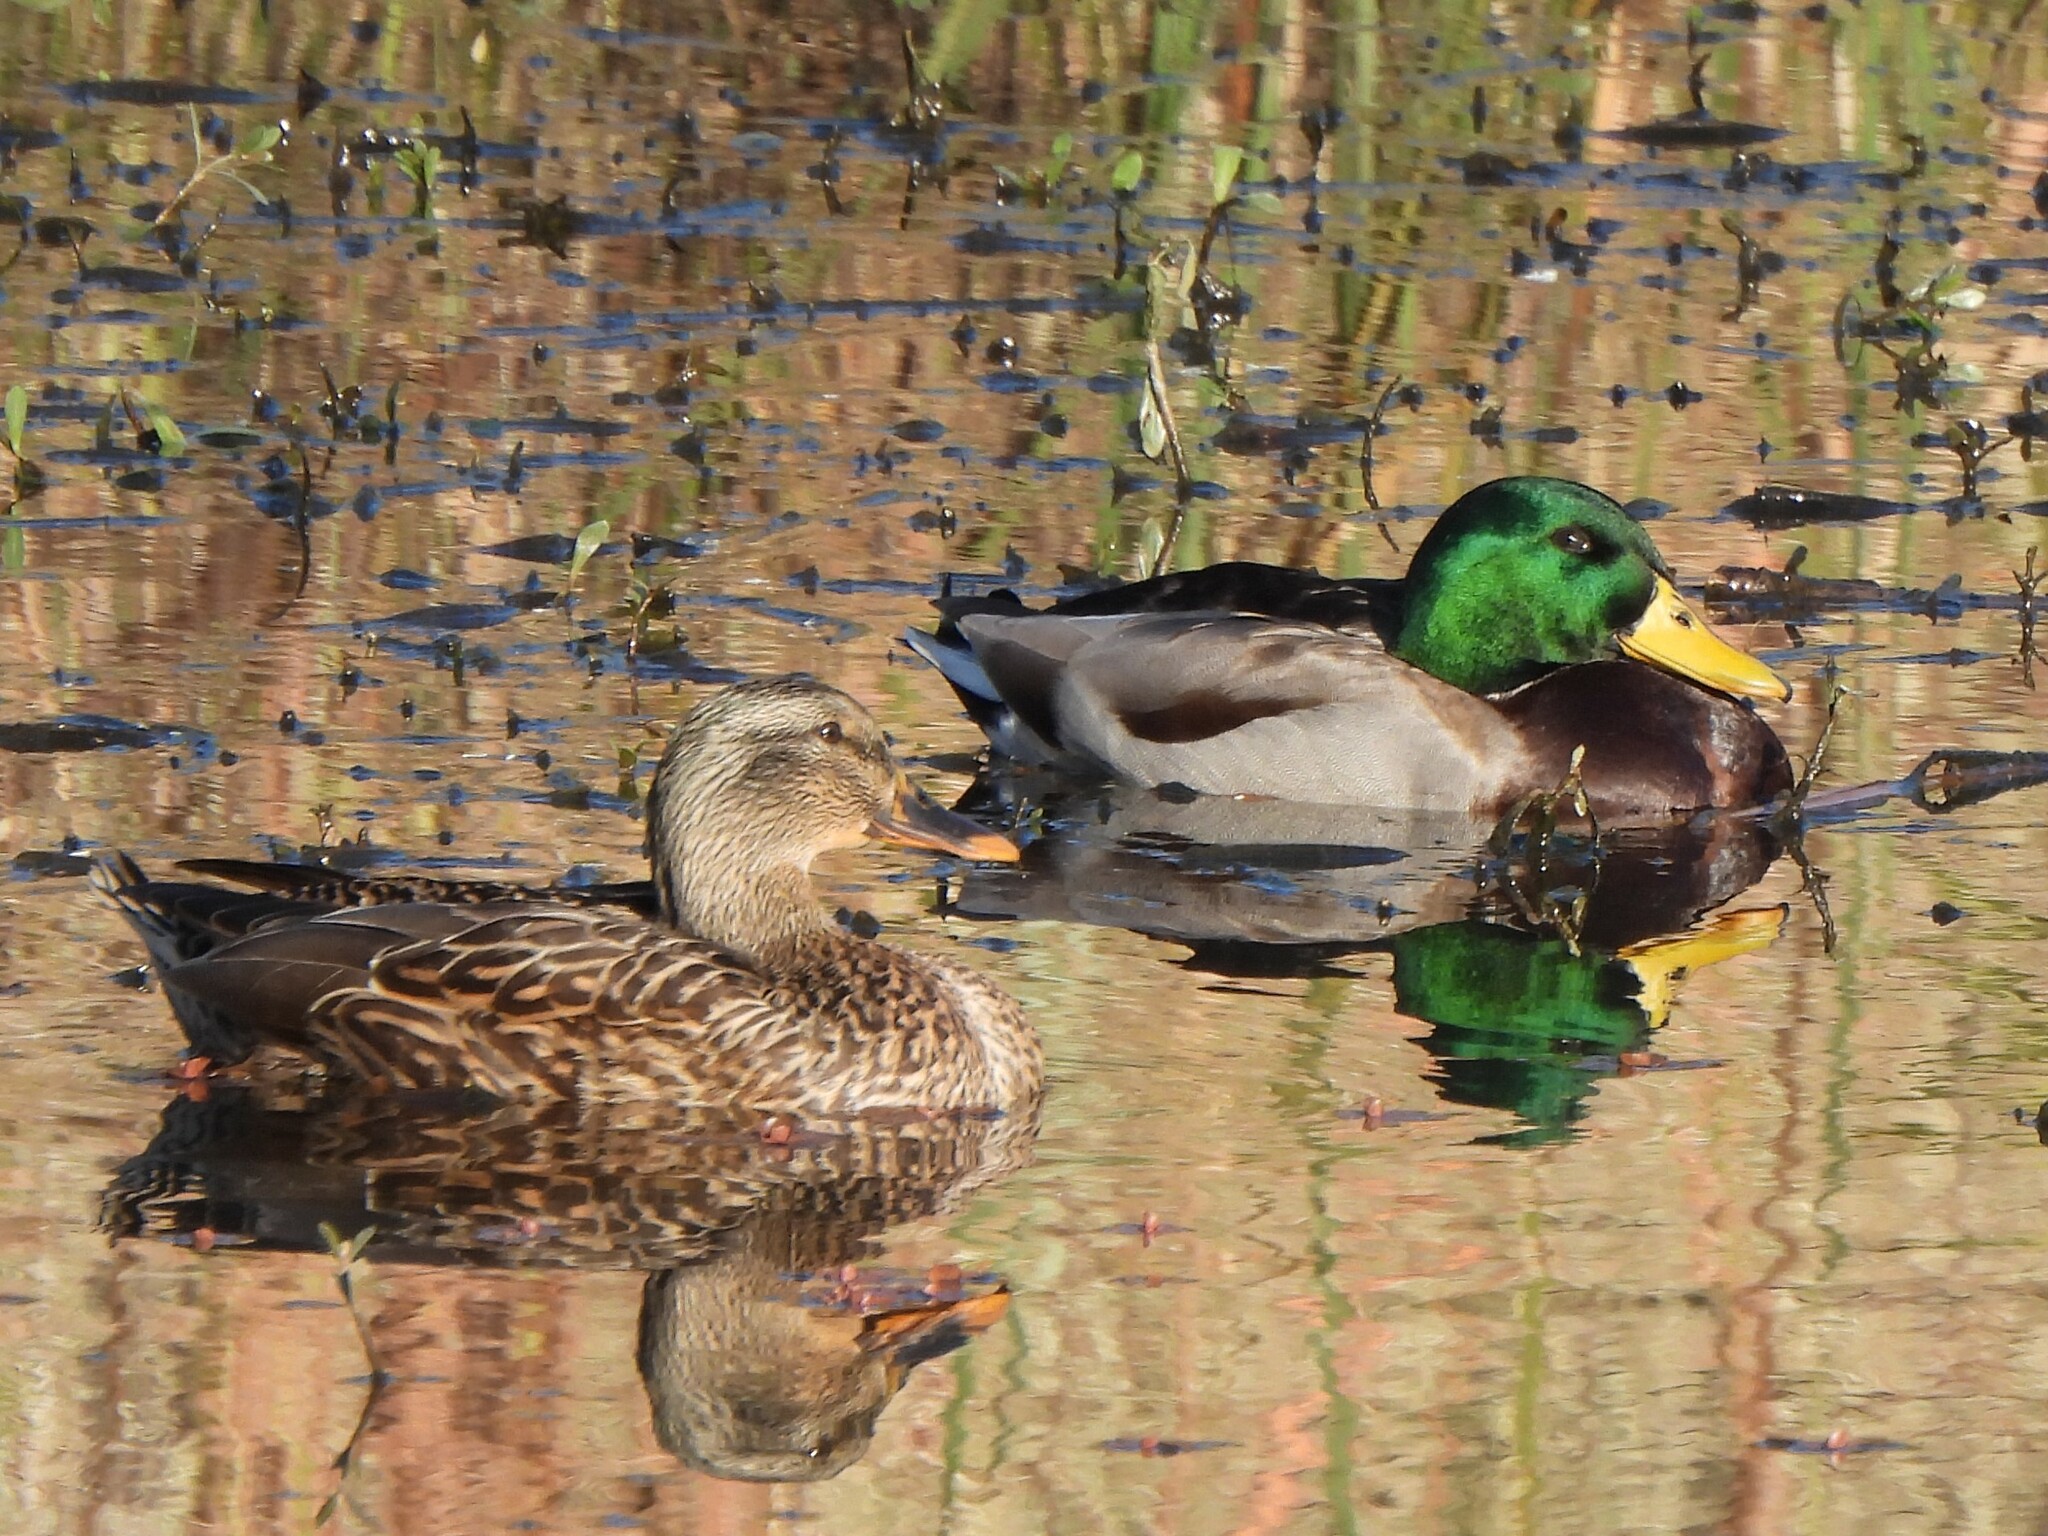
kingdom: Animalia
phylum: Chordata
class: Aves
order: Anseriformes
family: Anatidae
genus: Anas
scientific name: Anas platyrhynchos
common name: Mallard
